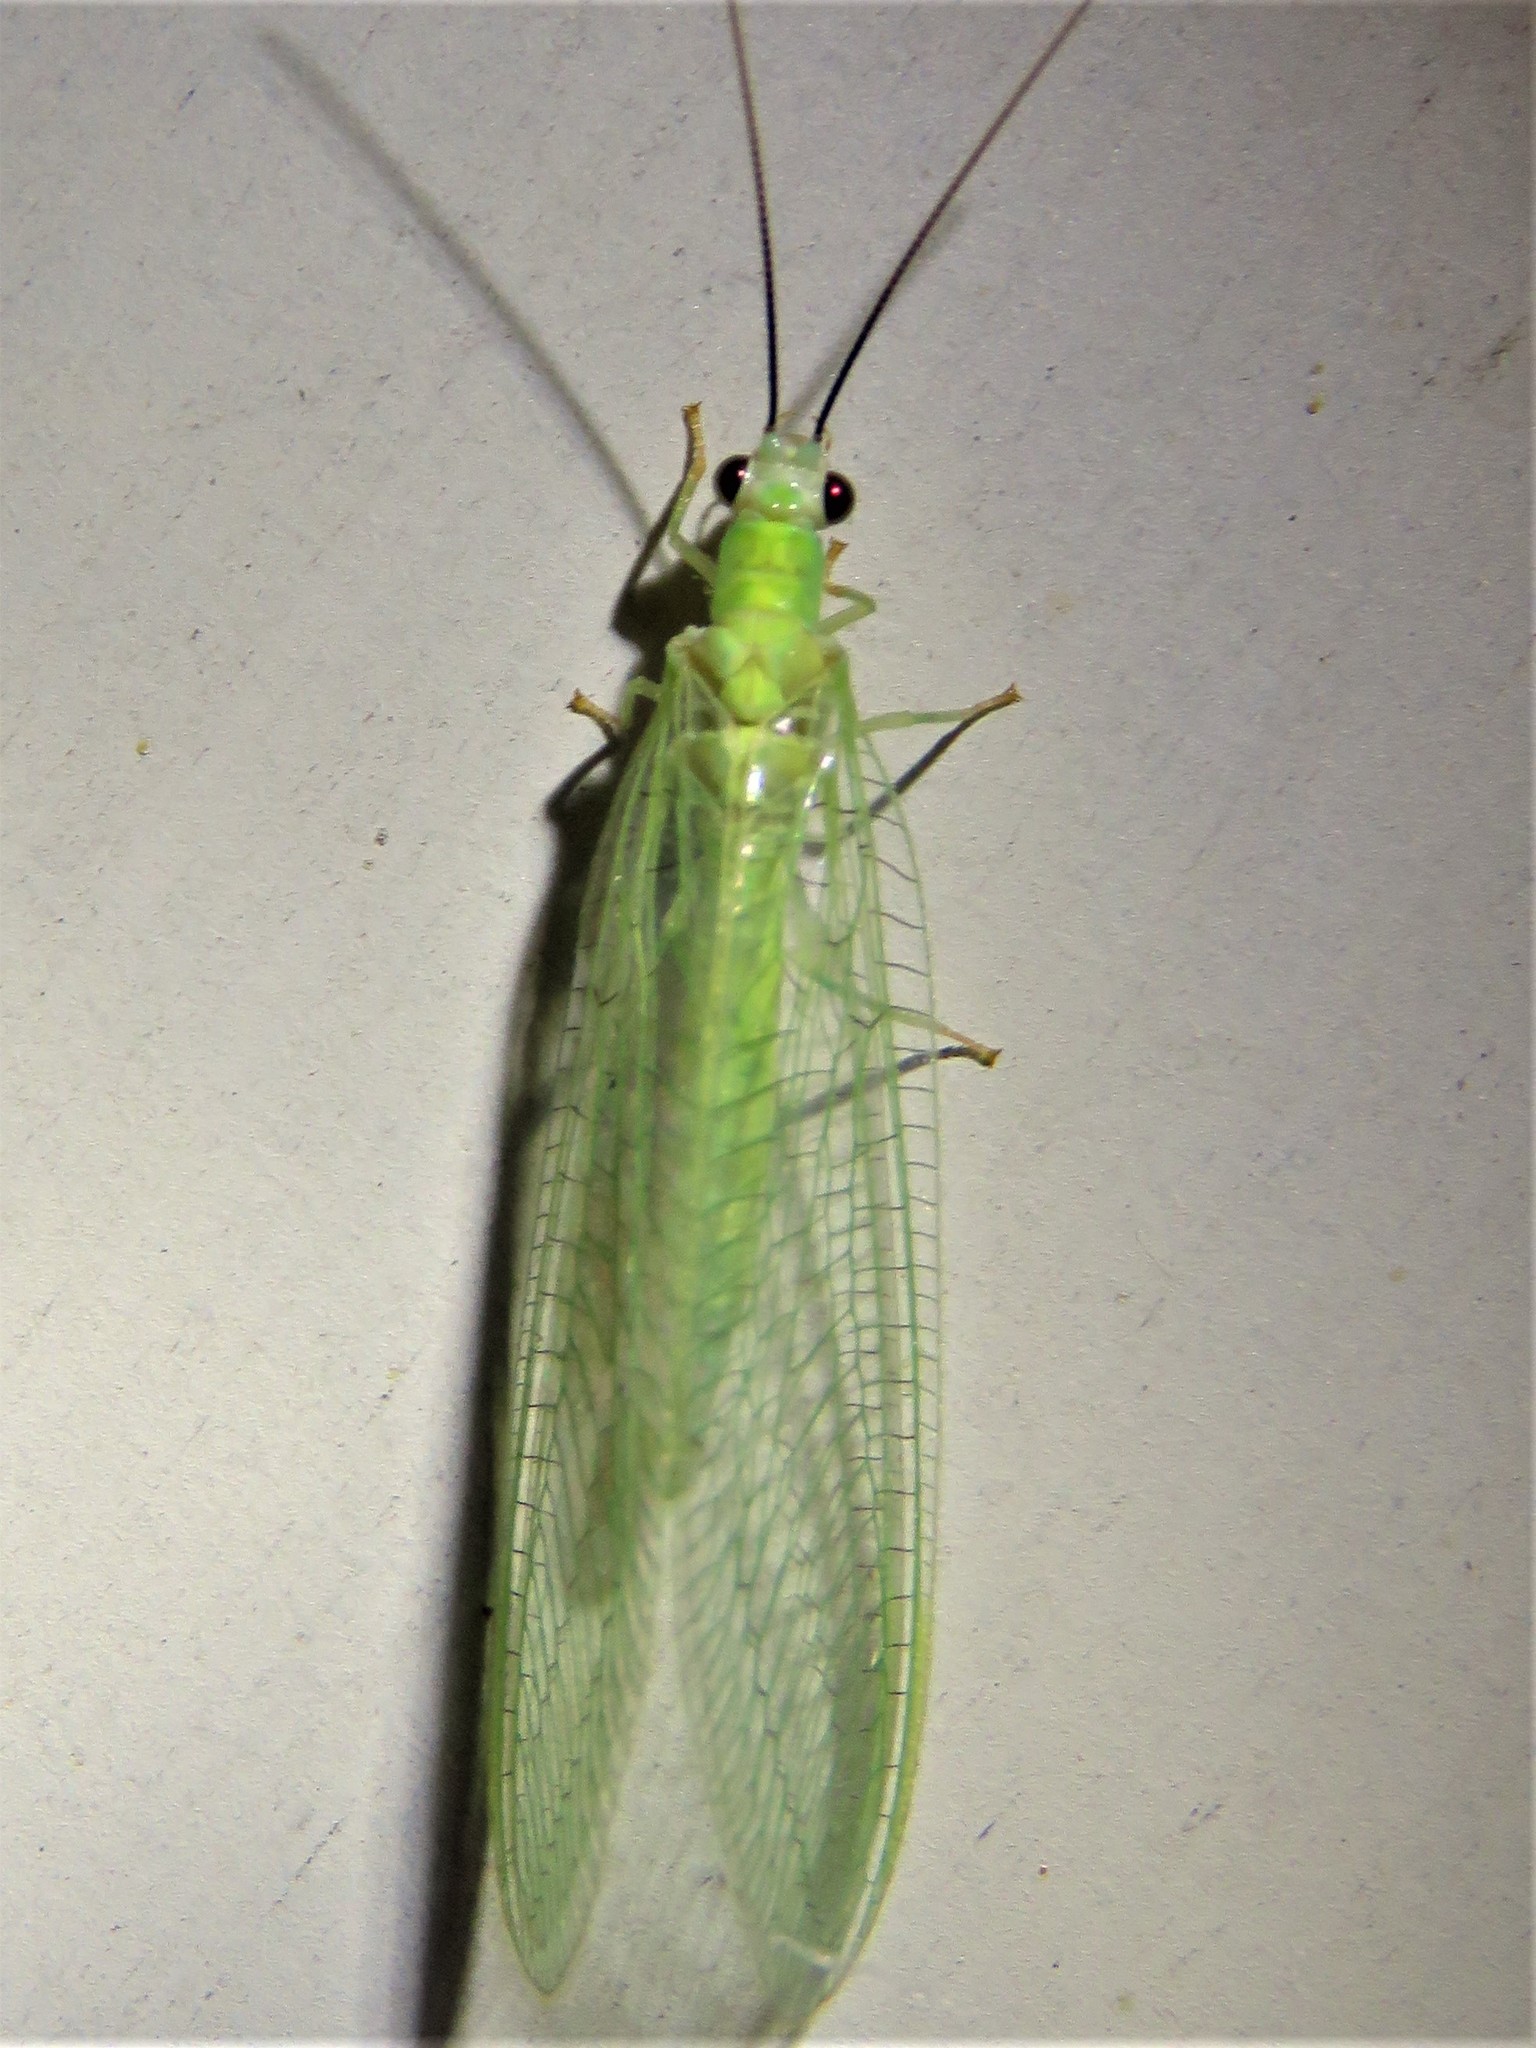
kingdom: Animalia
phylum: Arthropoda
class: Insecta
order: Neuroptera
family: Chrysopidae
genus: Chrysopa
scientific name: Chrysopa nigricornis
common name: Black-horned green lacewing
